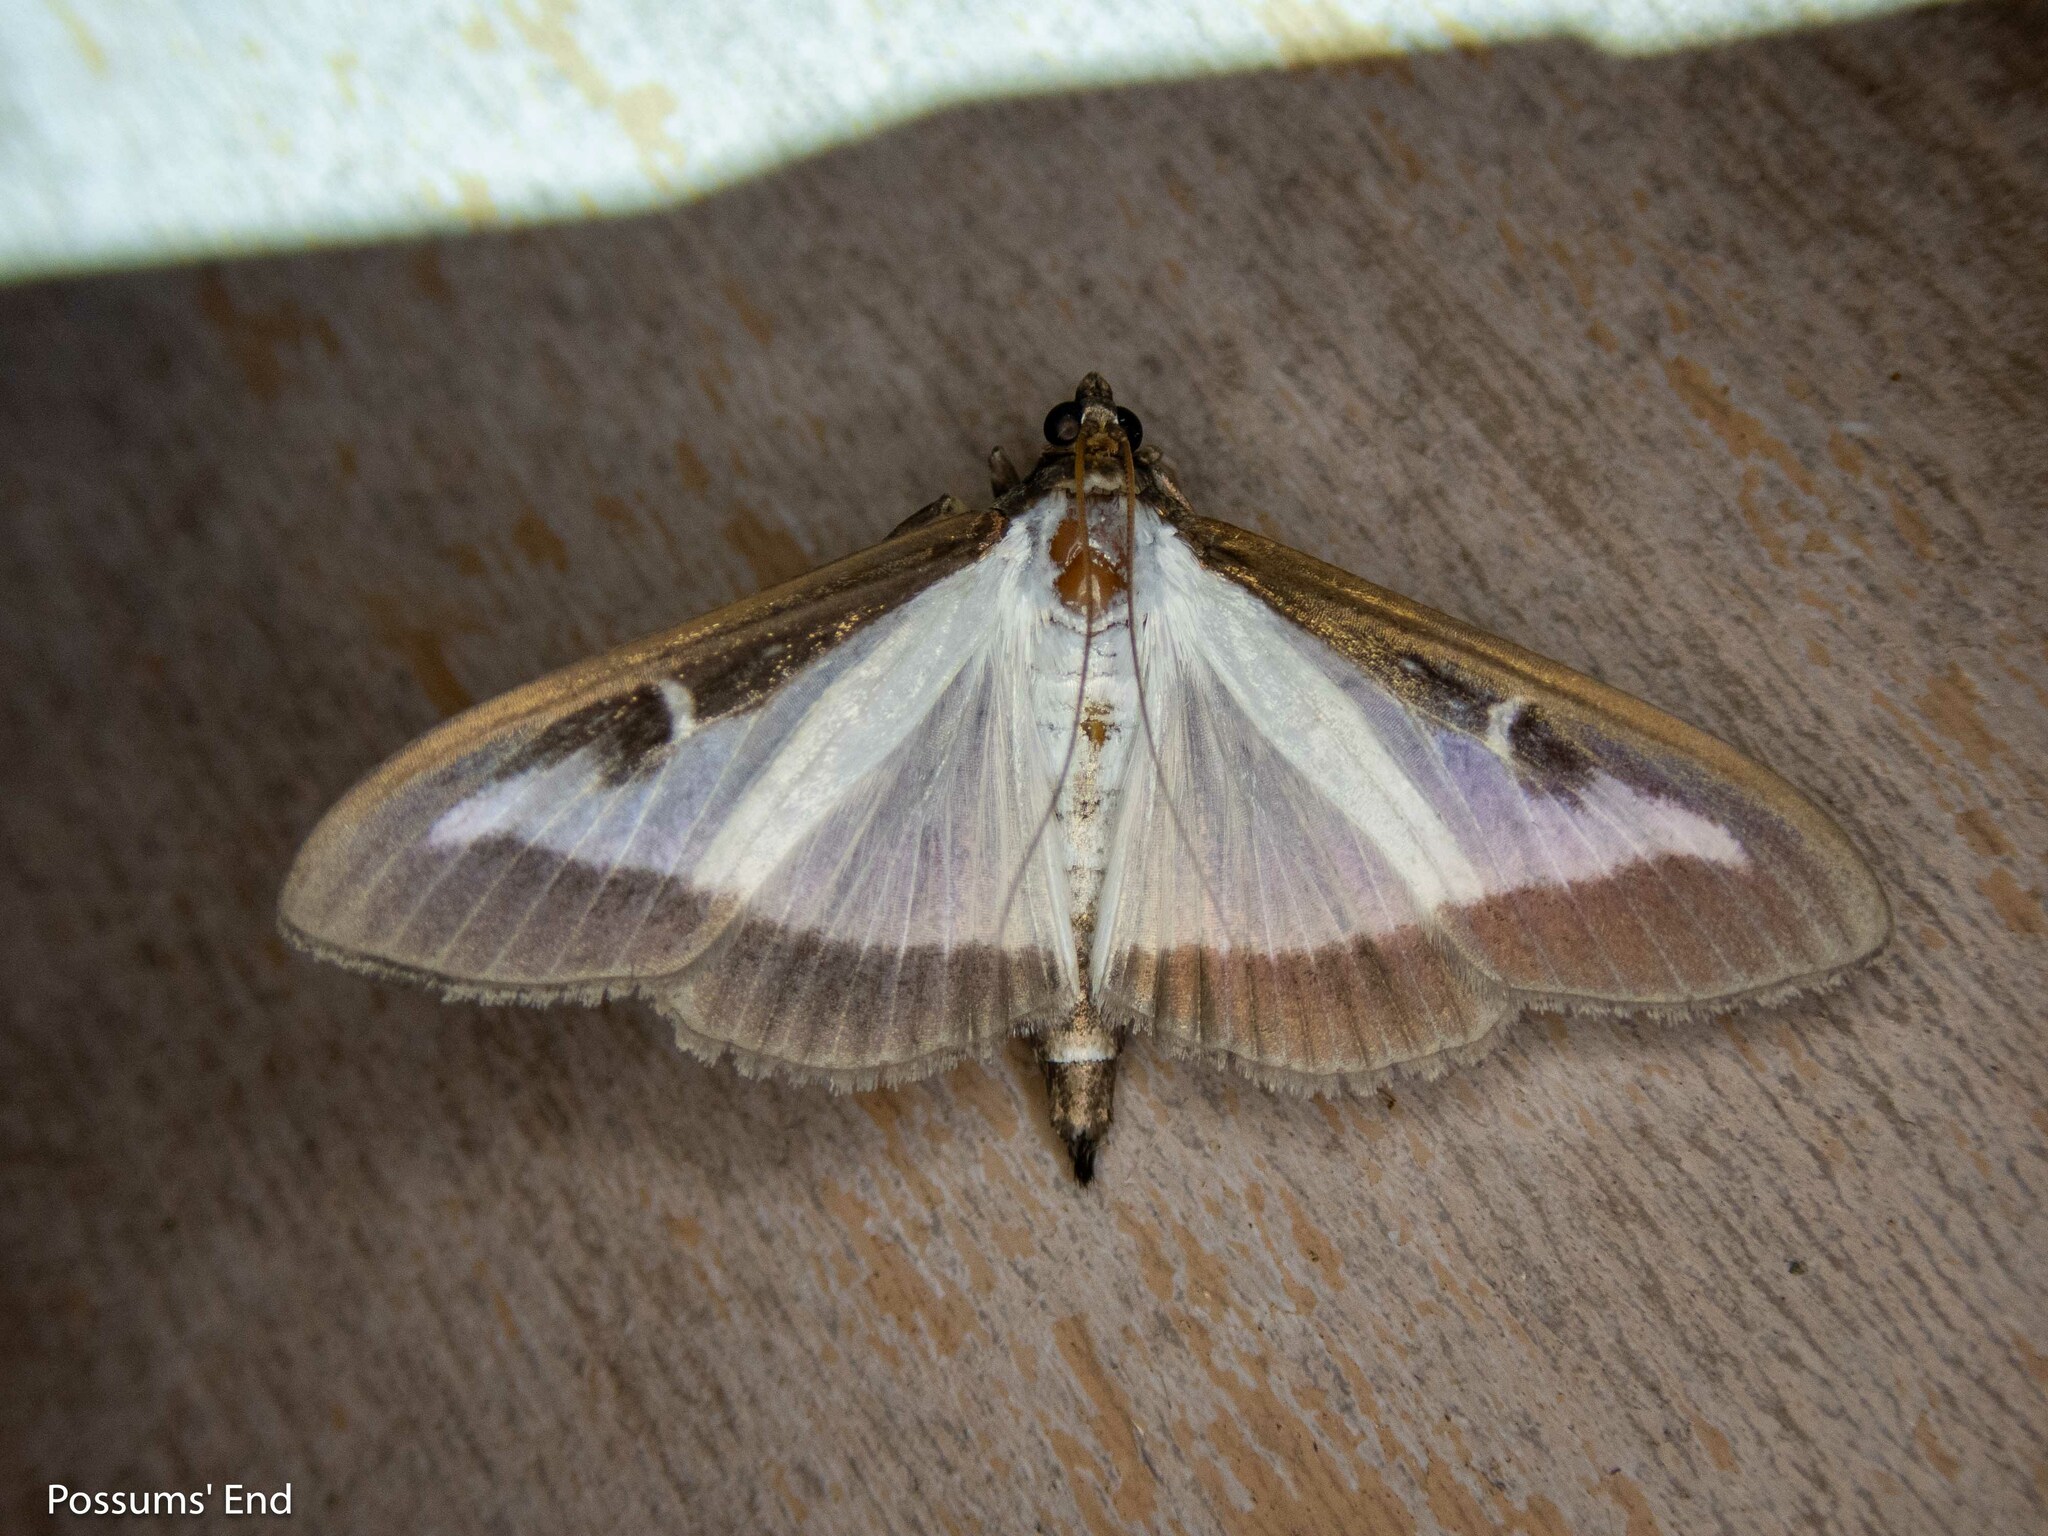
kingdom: Animalia
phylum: Arthropoda
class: Insecta
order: Lepidoptera
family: Crambidae
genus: Cydalima
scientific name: Cydalima perspectalis
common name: Box tree moth
